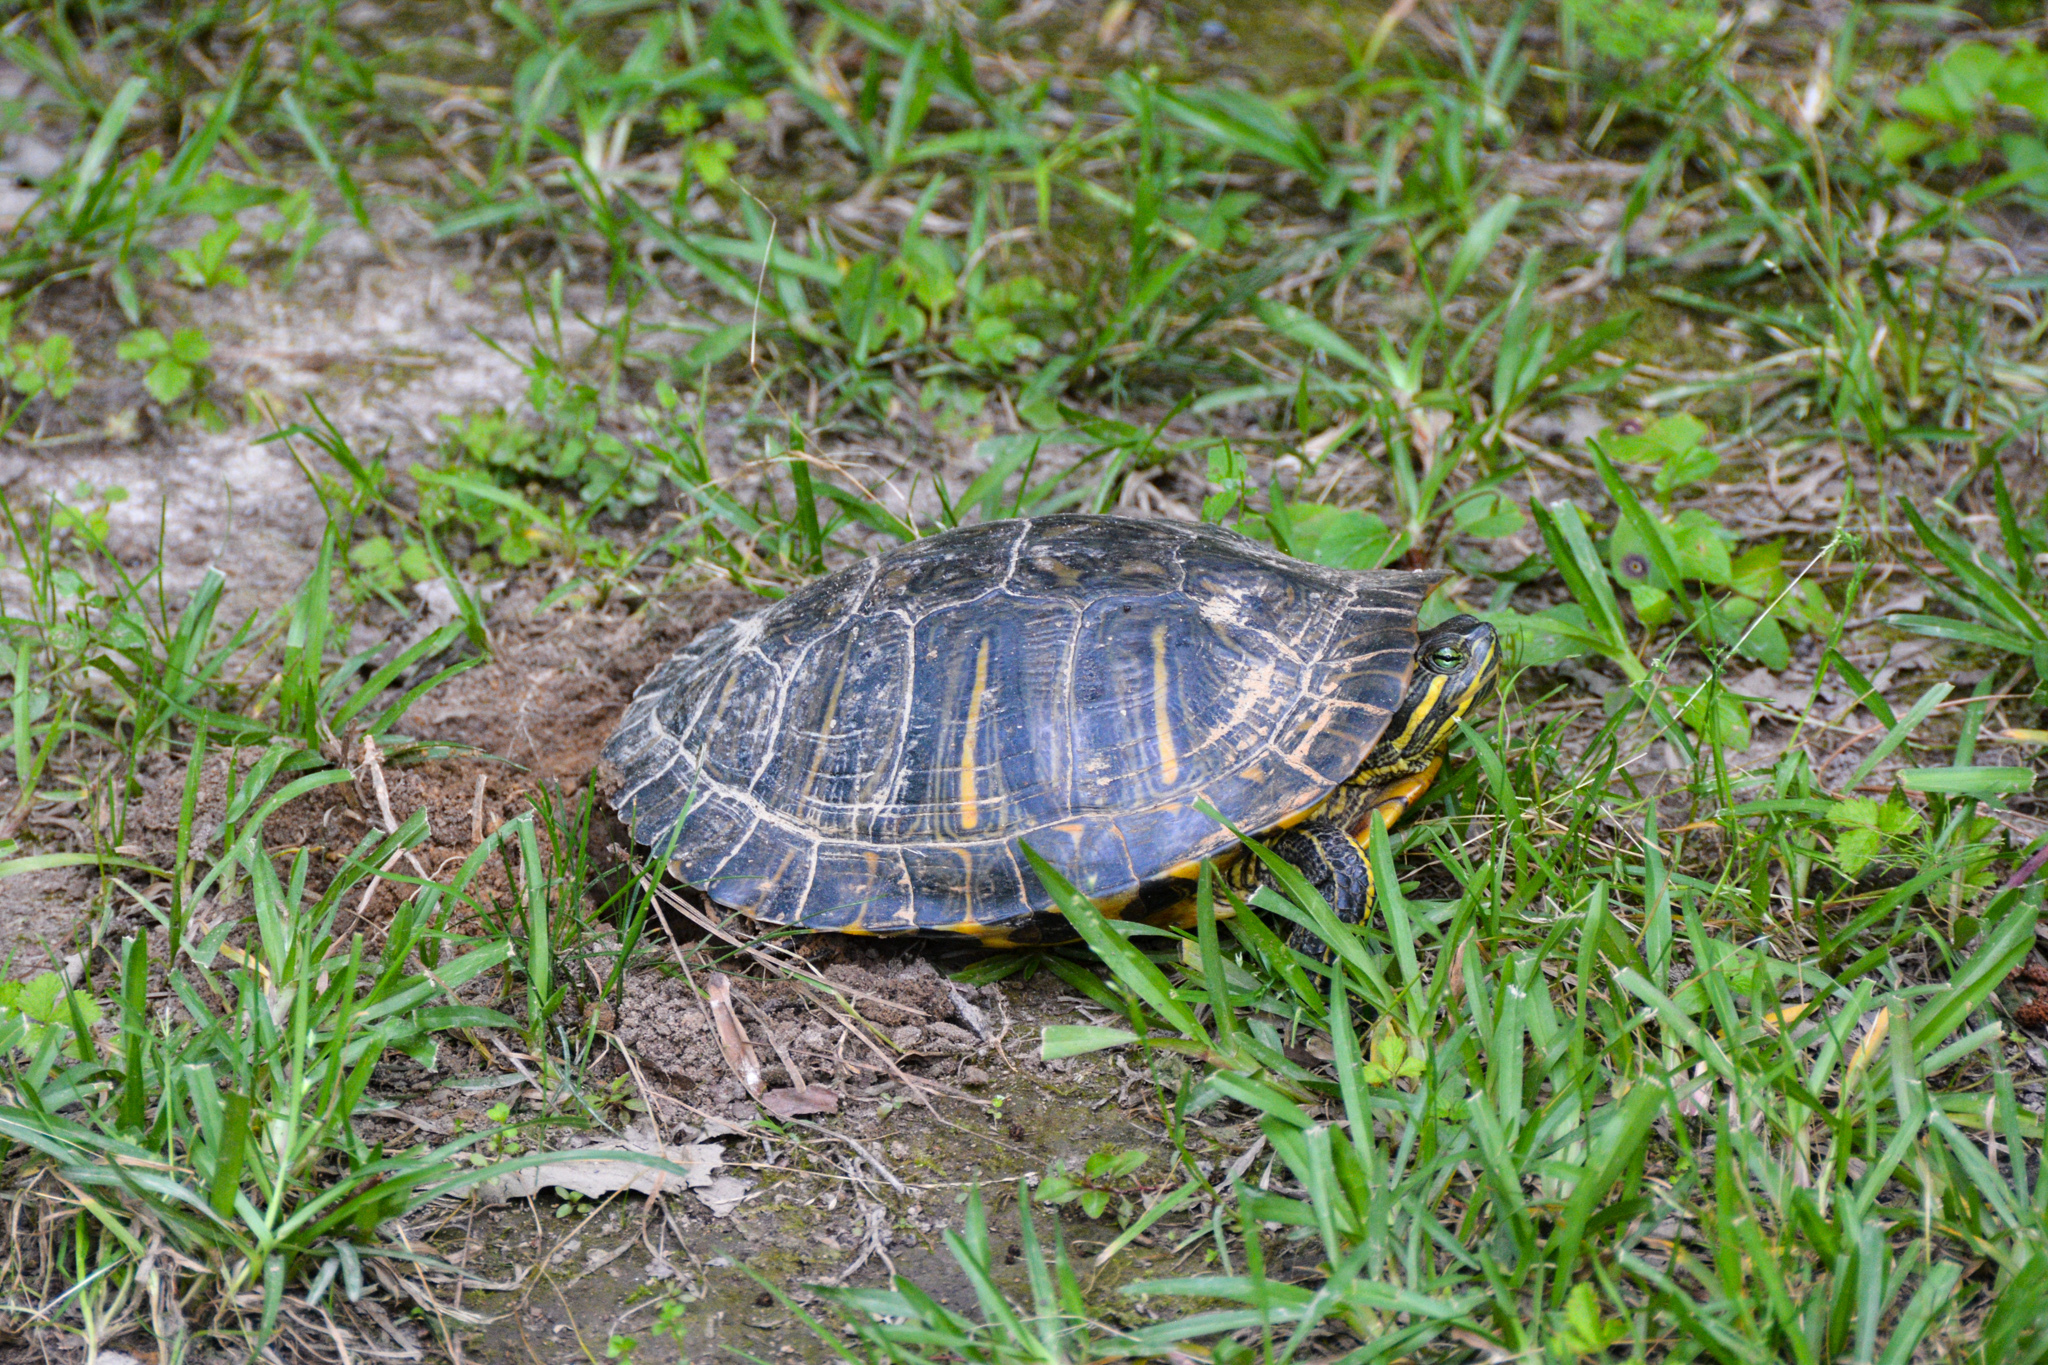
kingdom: Animalia
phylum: Chordata
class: Testudines
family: Emydidae
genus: Trachemys
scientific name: Trachemys scripta
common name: Slider
